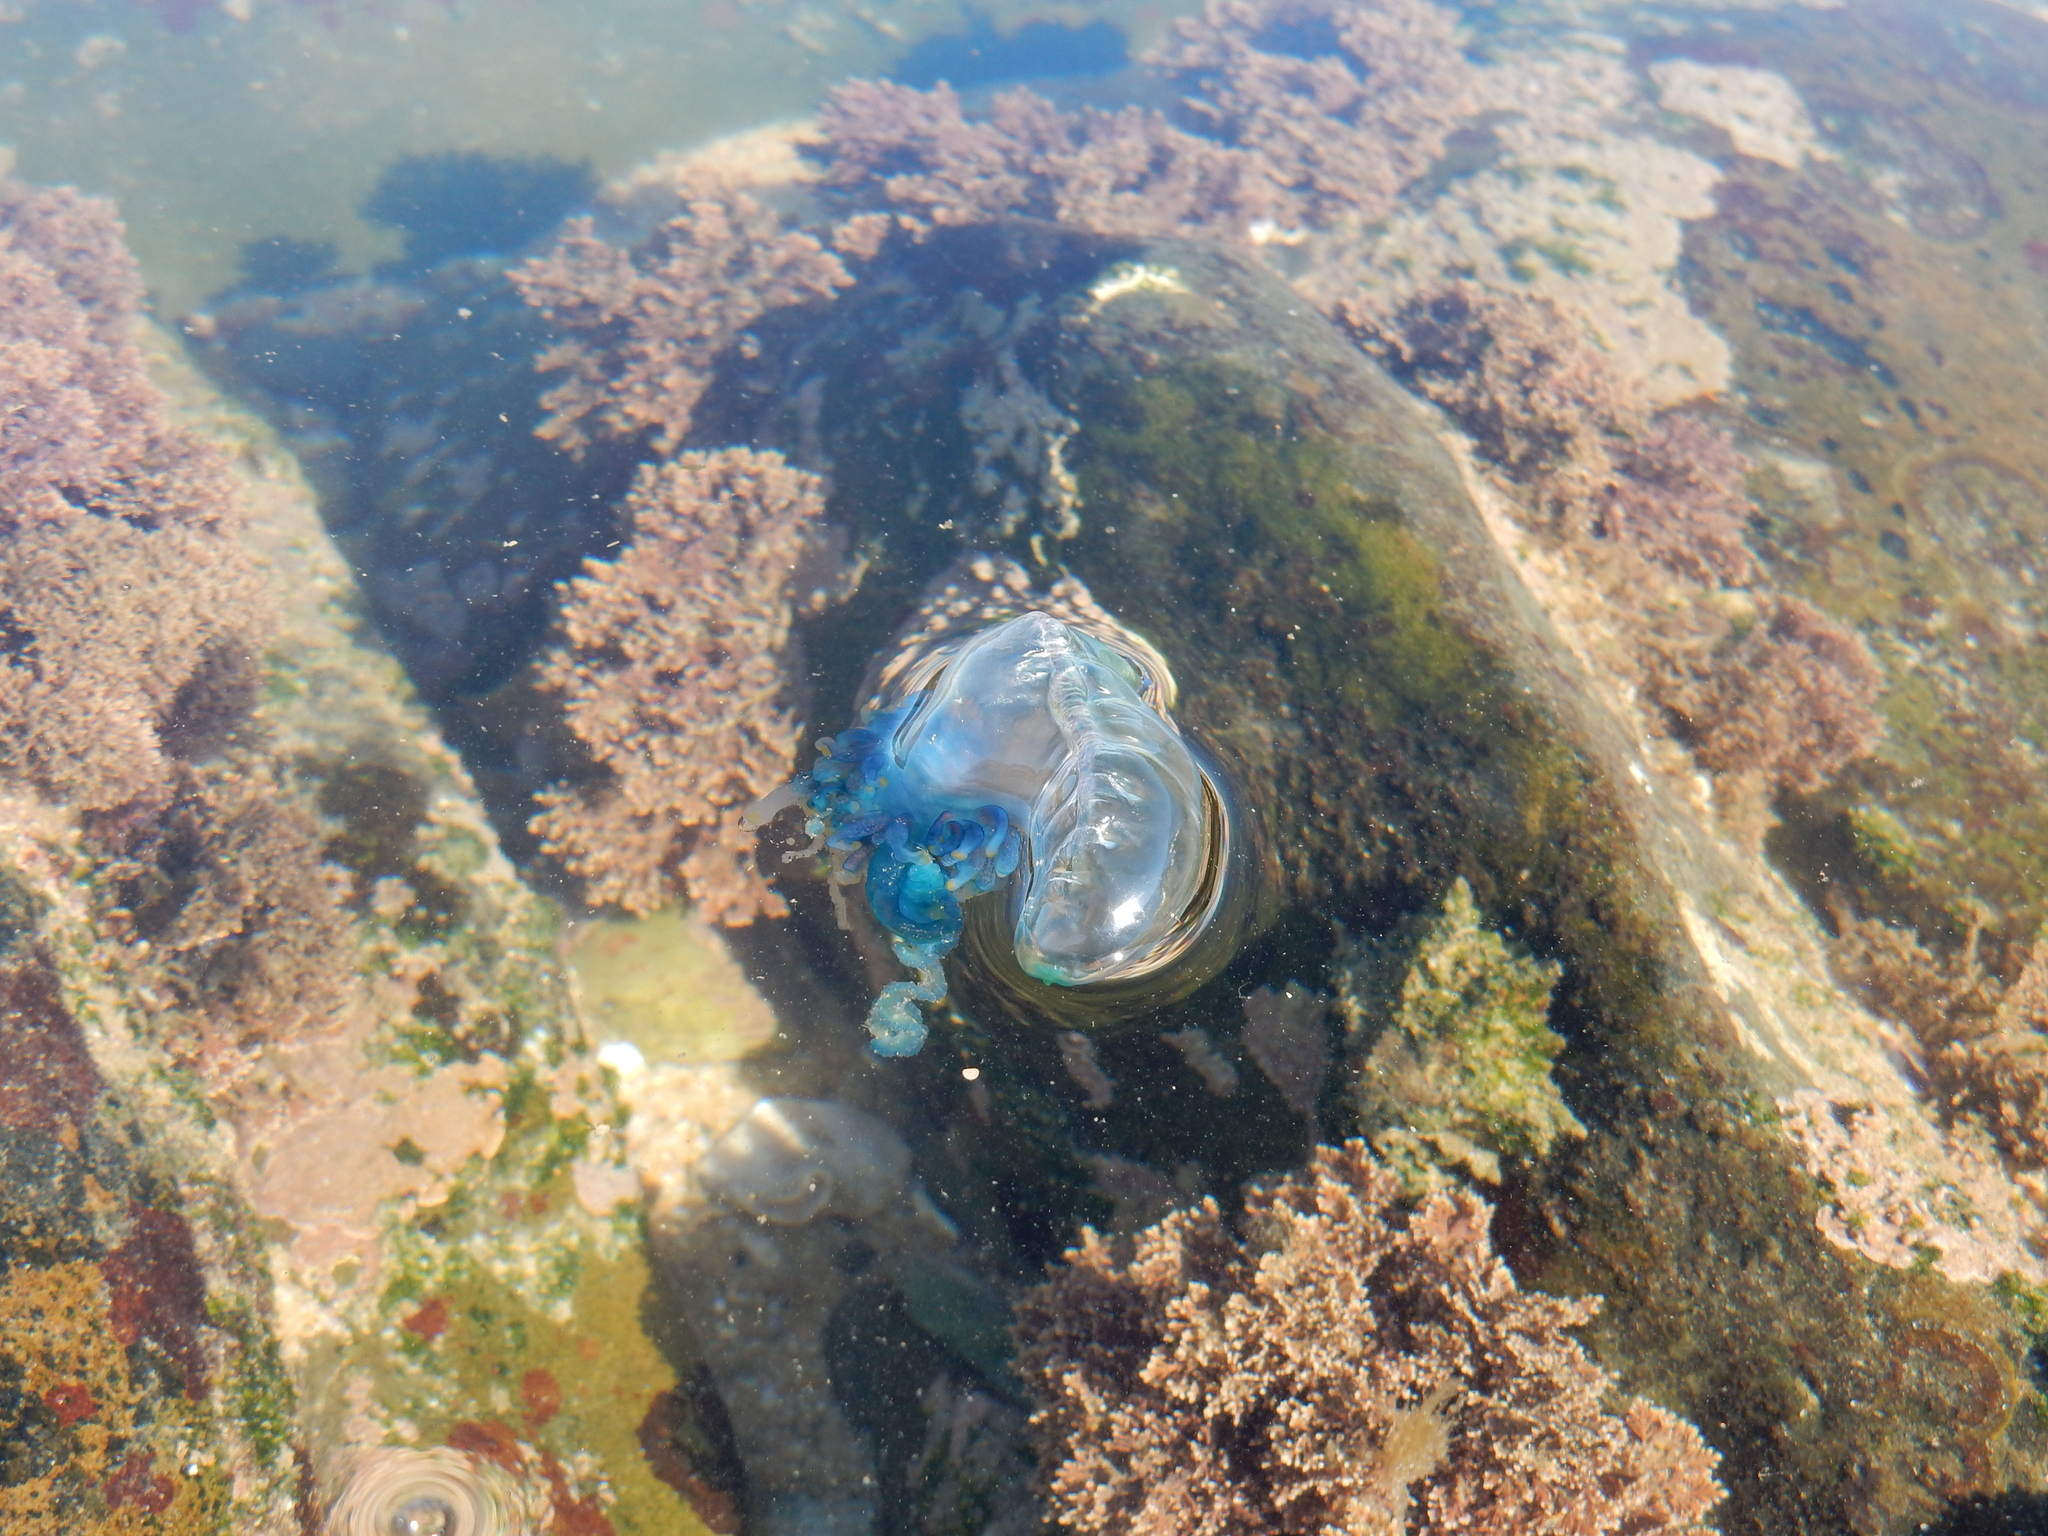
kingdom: Animalia
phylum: Cnidaria
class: Hydrozoa
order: Siphonophorae
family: Physaliidae
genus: Physalia
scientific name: Physalia physalis
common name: Portuguese man-of-war
